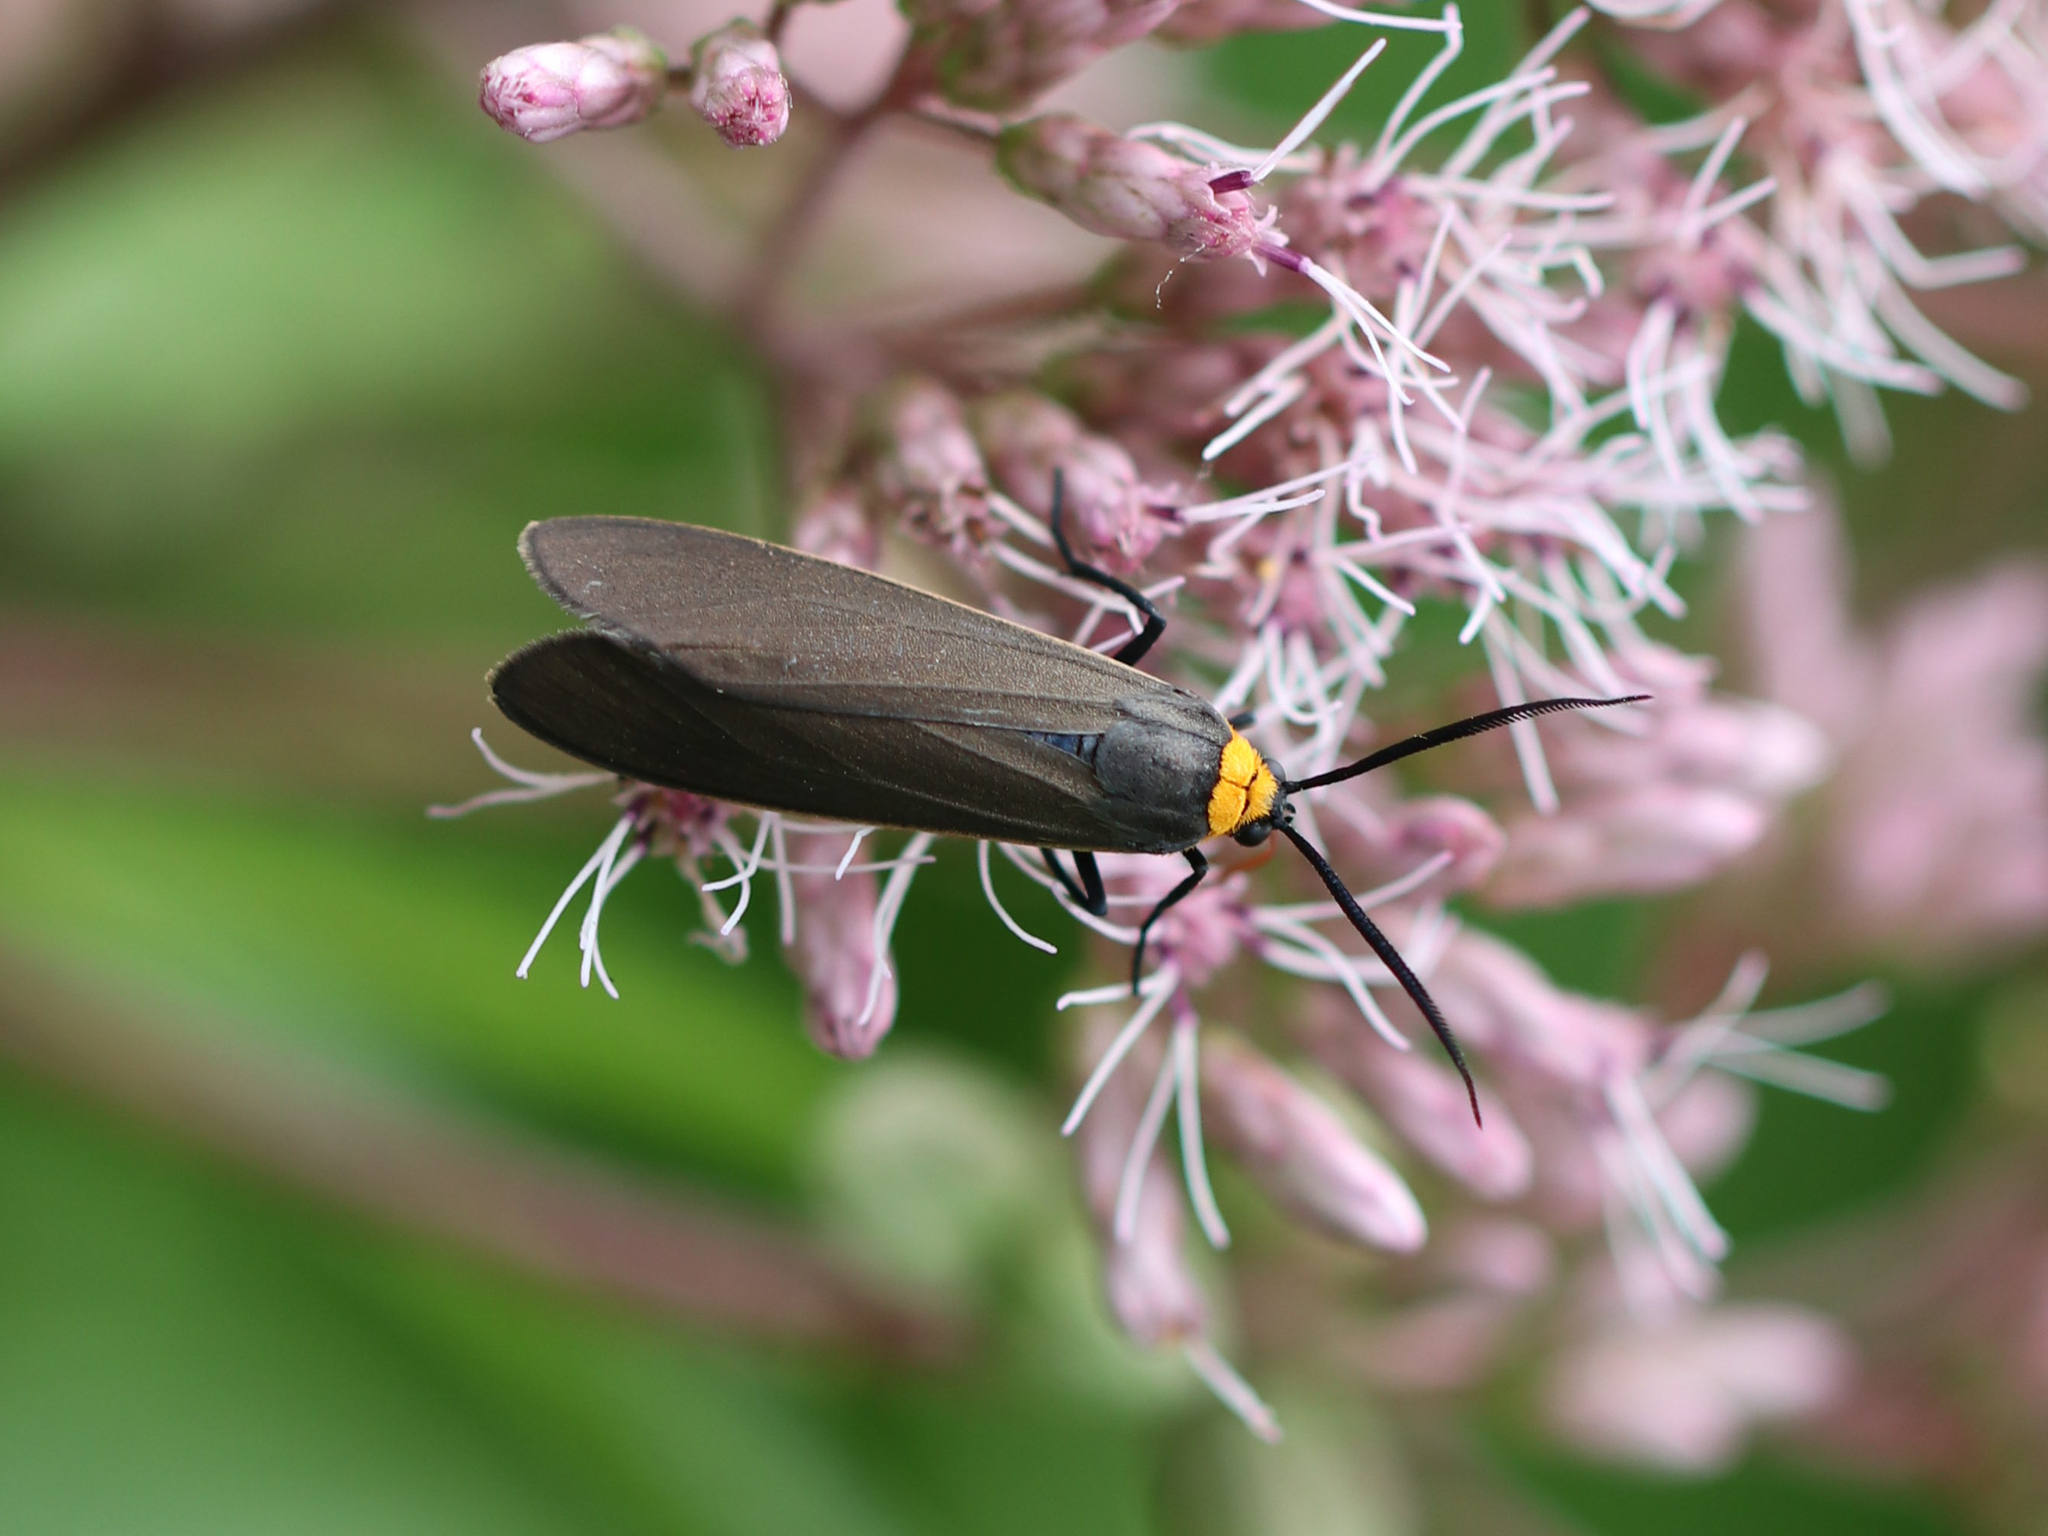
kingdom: Animalia
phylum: Arthropoda
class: Insecta
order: Lepidoptera
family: Erebidae
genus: Cisseps
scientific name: Cisseps fulvicollis
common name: Yellow-collared scape moth
